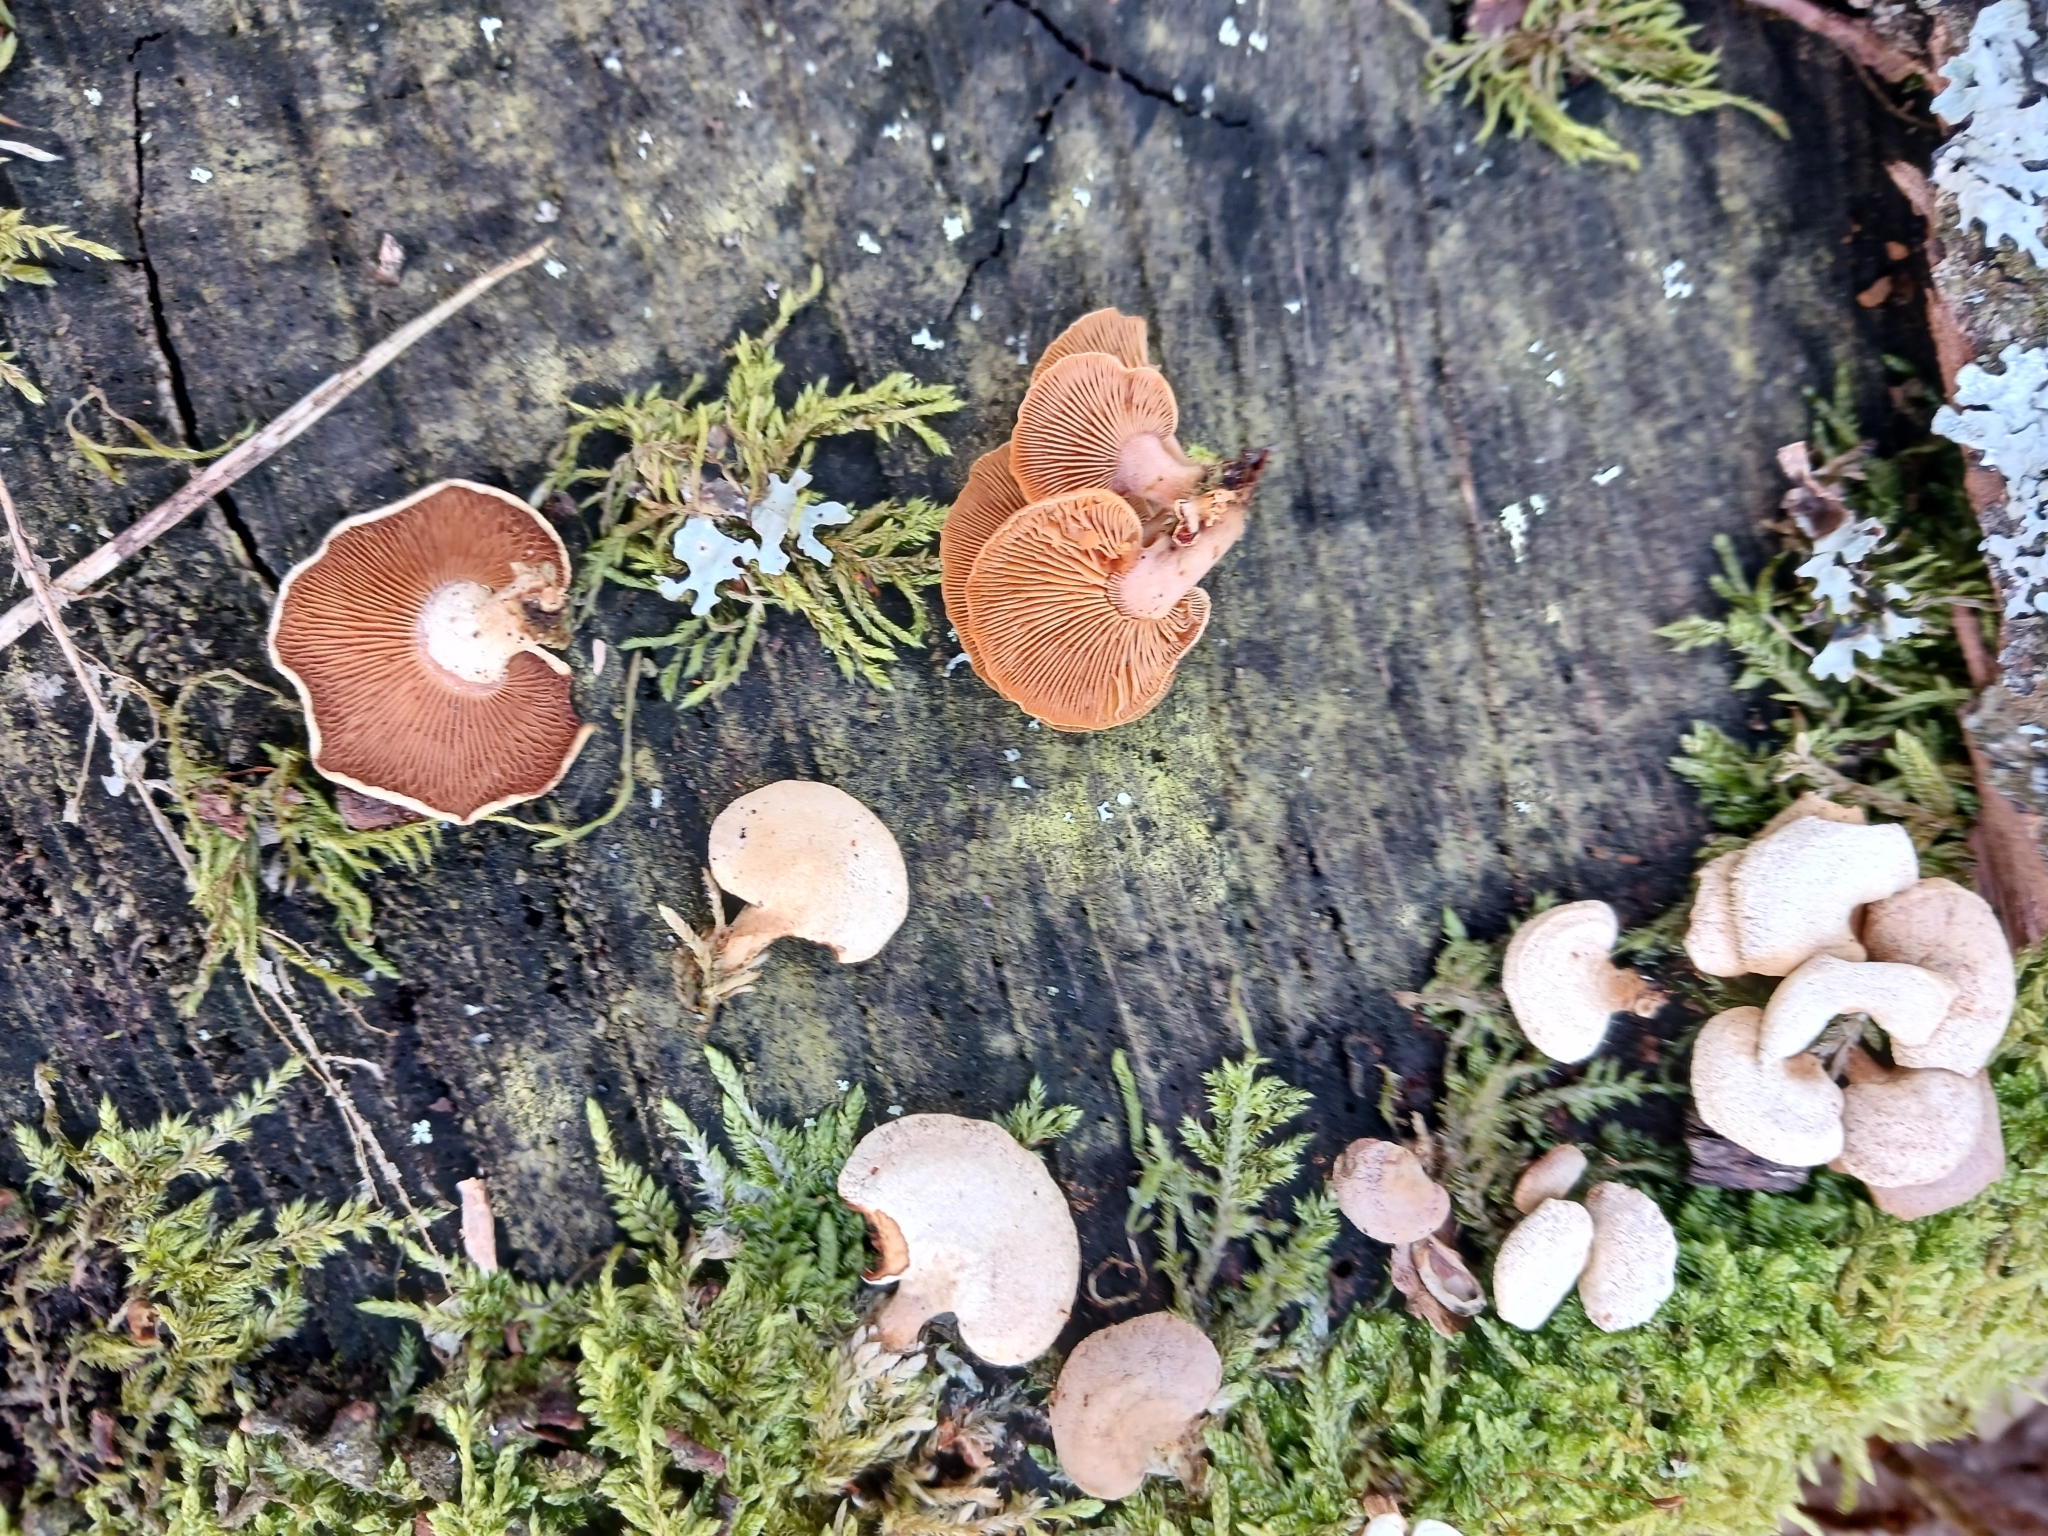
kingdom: Fungi
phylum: Basidiomycota
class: Agaricomycetes
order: Agaricales
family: Mycenaceae
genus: Panellus
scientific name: Panellus stipticus
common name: Bitter oysterling
